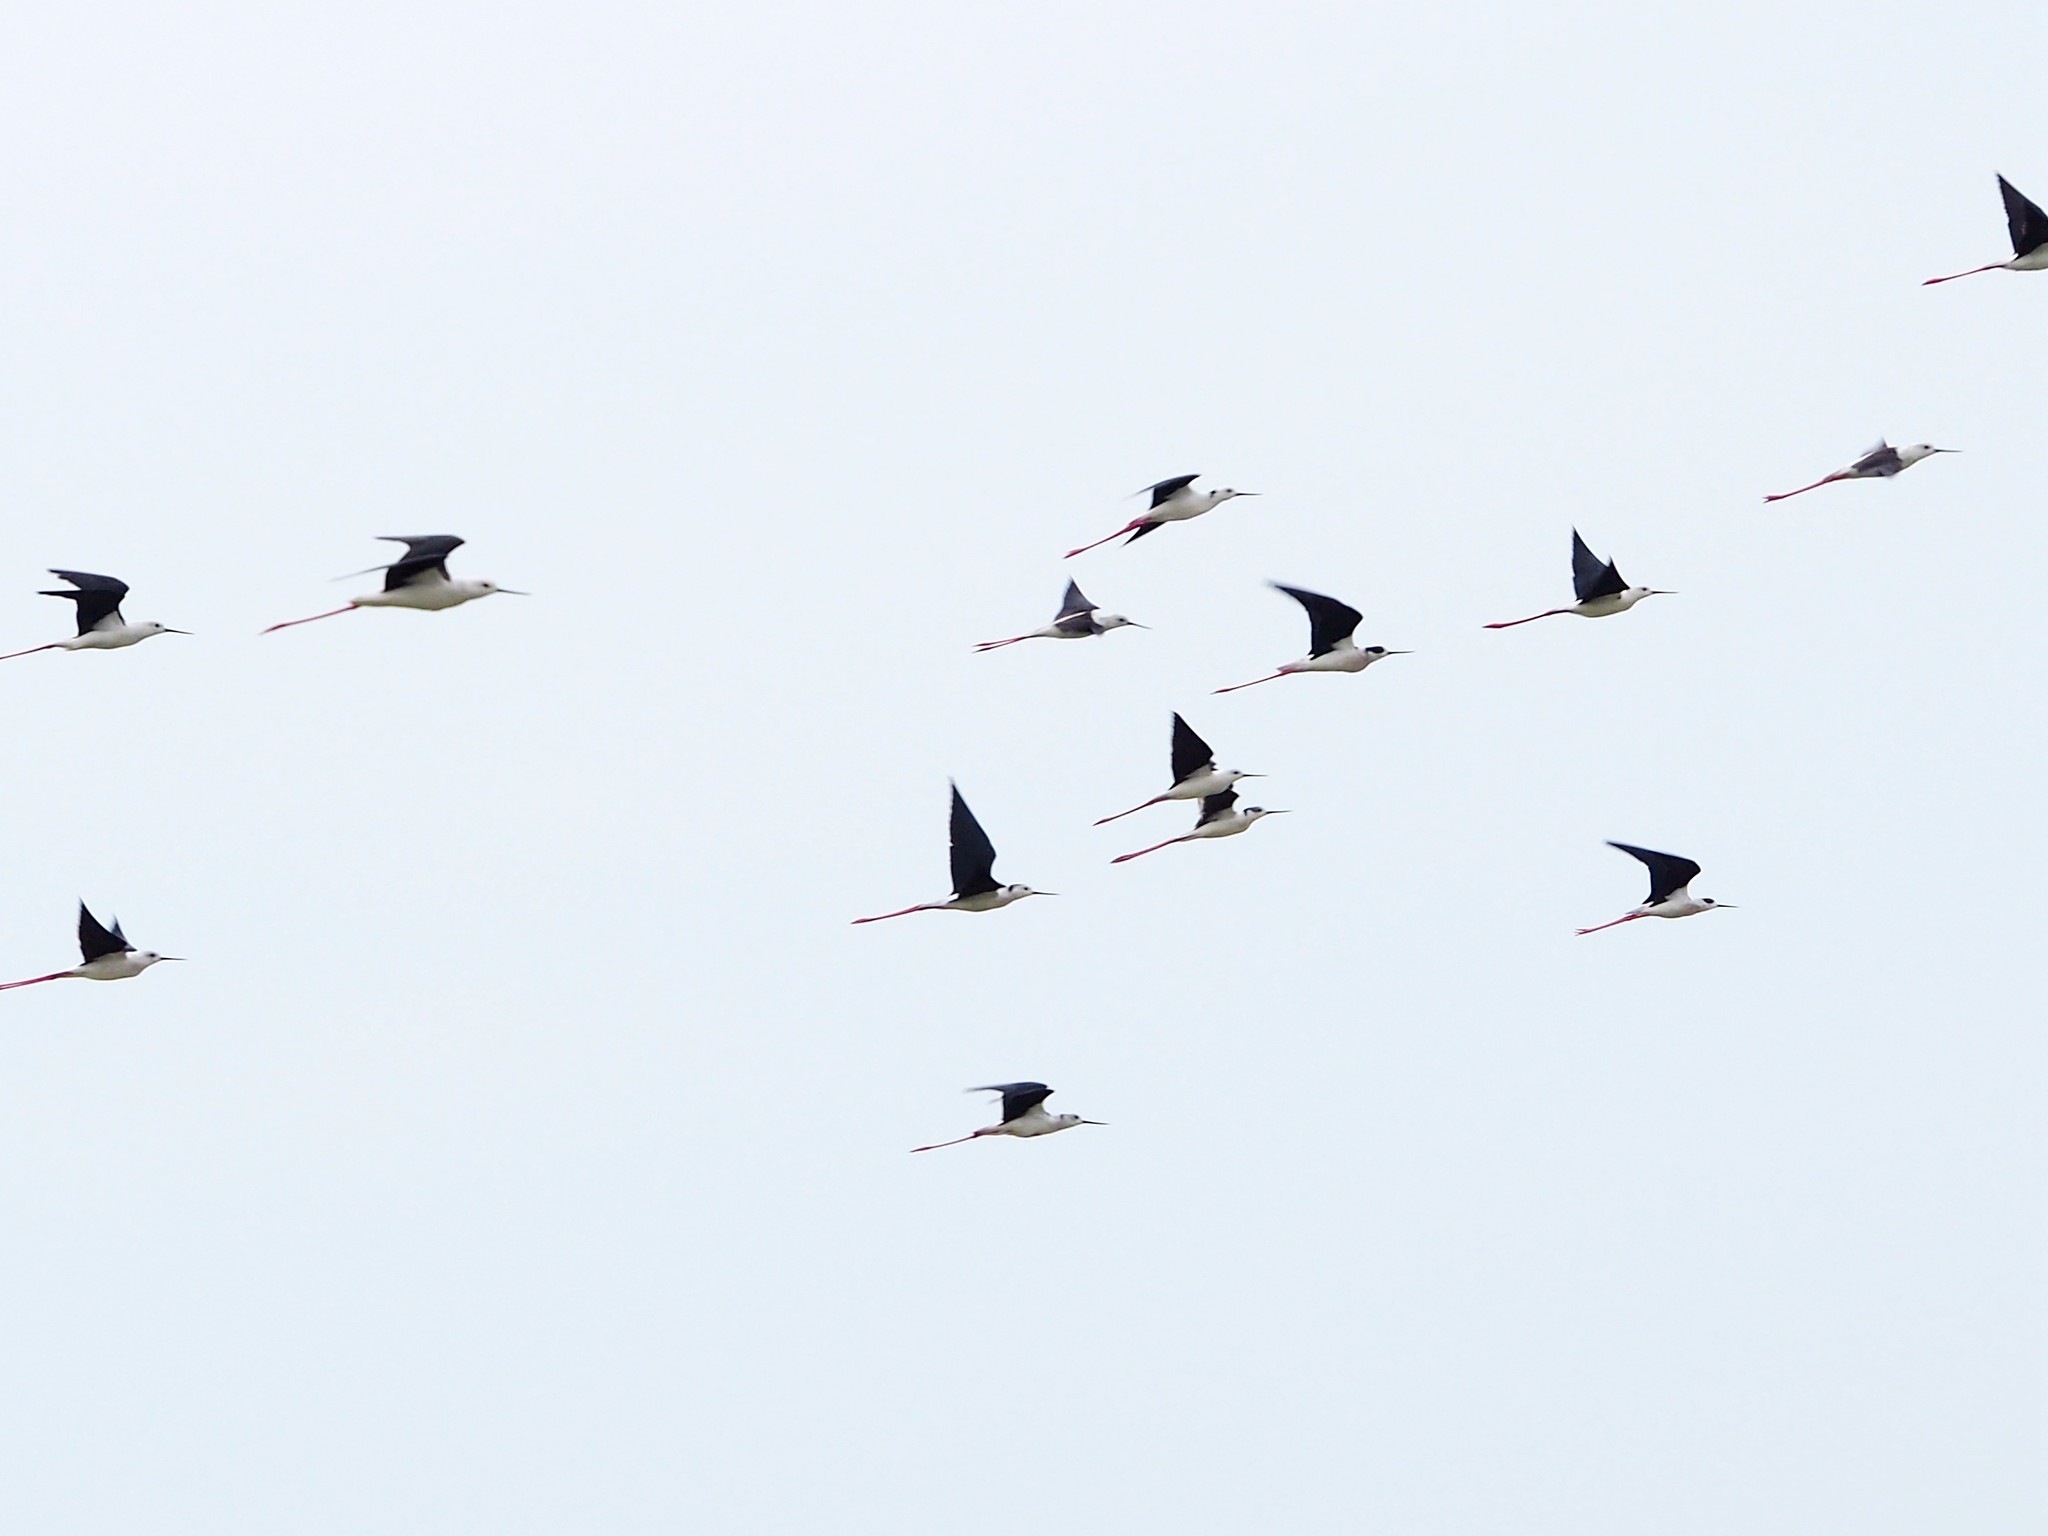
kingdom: Animalia
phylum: Chordata
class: Aves
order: Charadriiformes
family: Recurvirostridae
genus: Himantopus
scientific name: Himantopus himantopus
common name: Black-winged stilt
